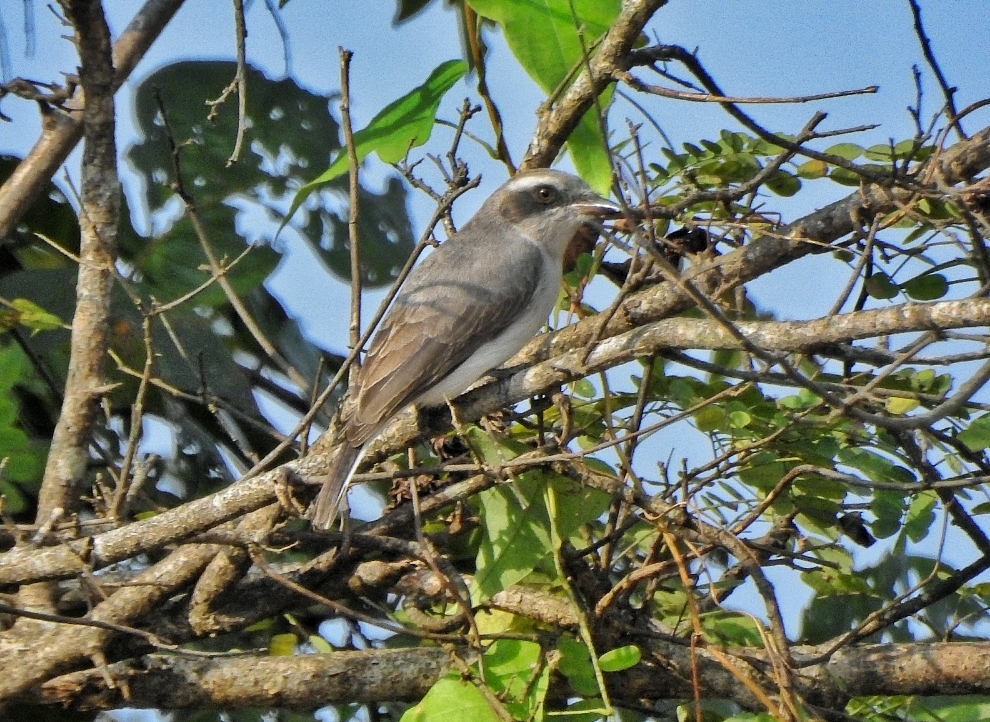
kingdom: Animalia
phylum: Chordata
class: Aves
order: Passeriformes
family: Tephrodornithidae
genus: Tephrodornis
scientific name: Tephrodornis pondicerianus
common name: Common woodshrike
